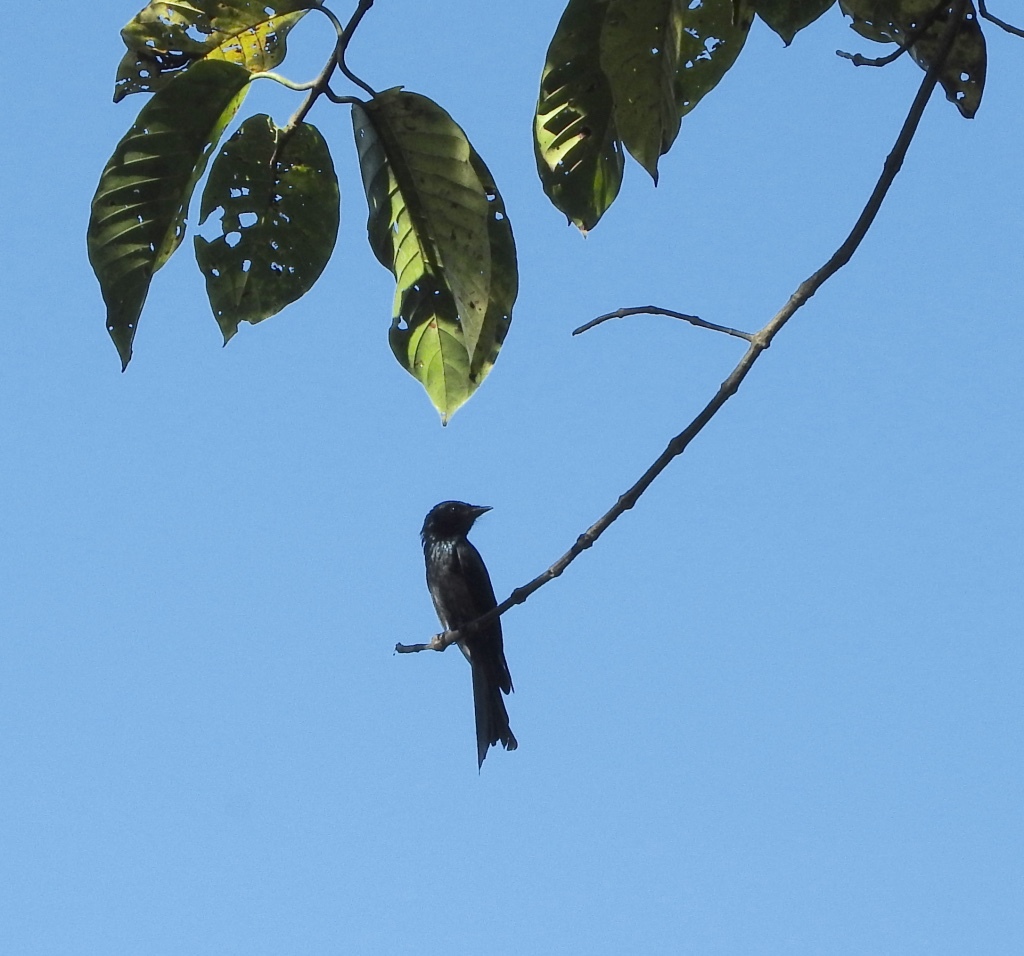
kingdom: Animalia
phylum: Chordata
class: Aves
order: Passeriformes
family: Dicruridae
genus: Dicrurus
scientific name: Dicrurus aeneus
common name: Bronzed drongo
